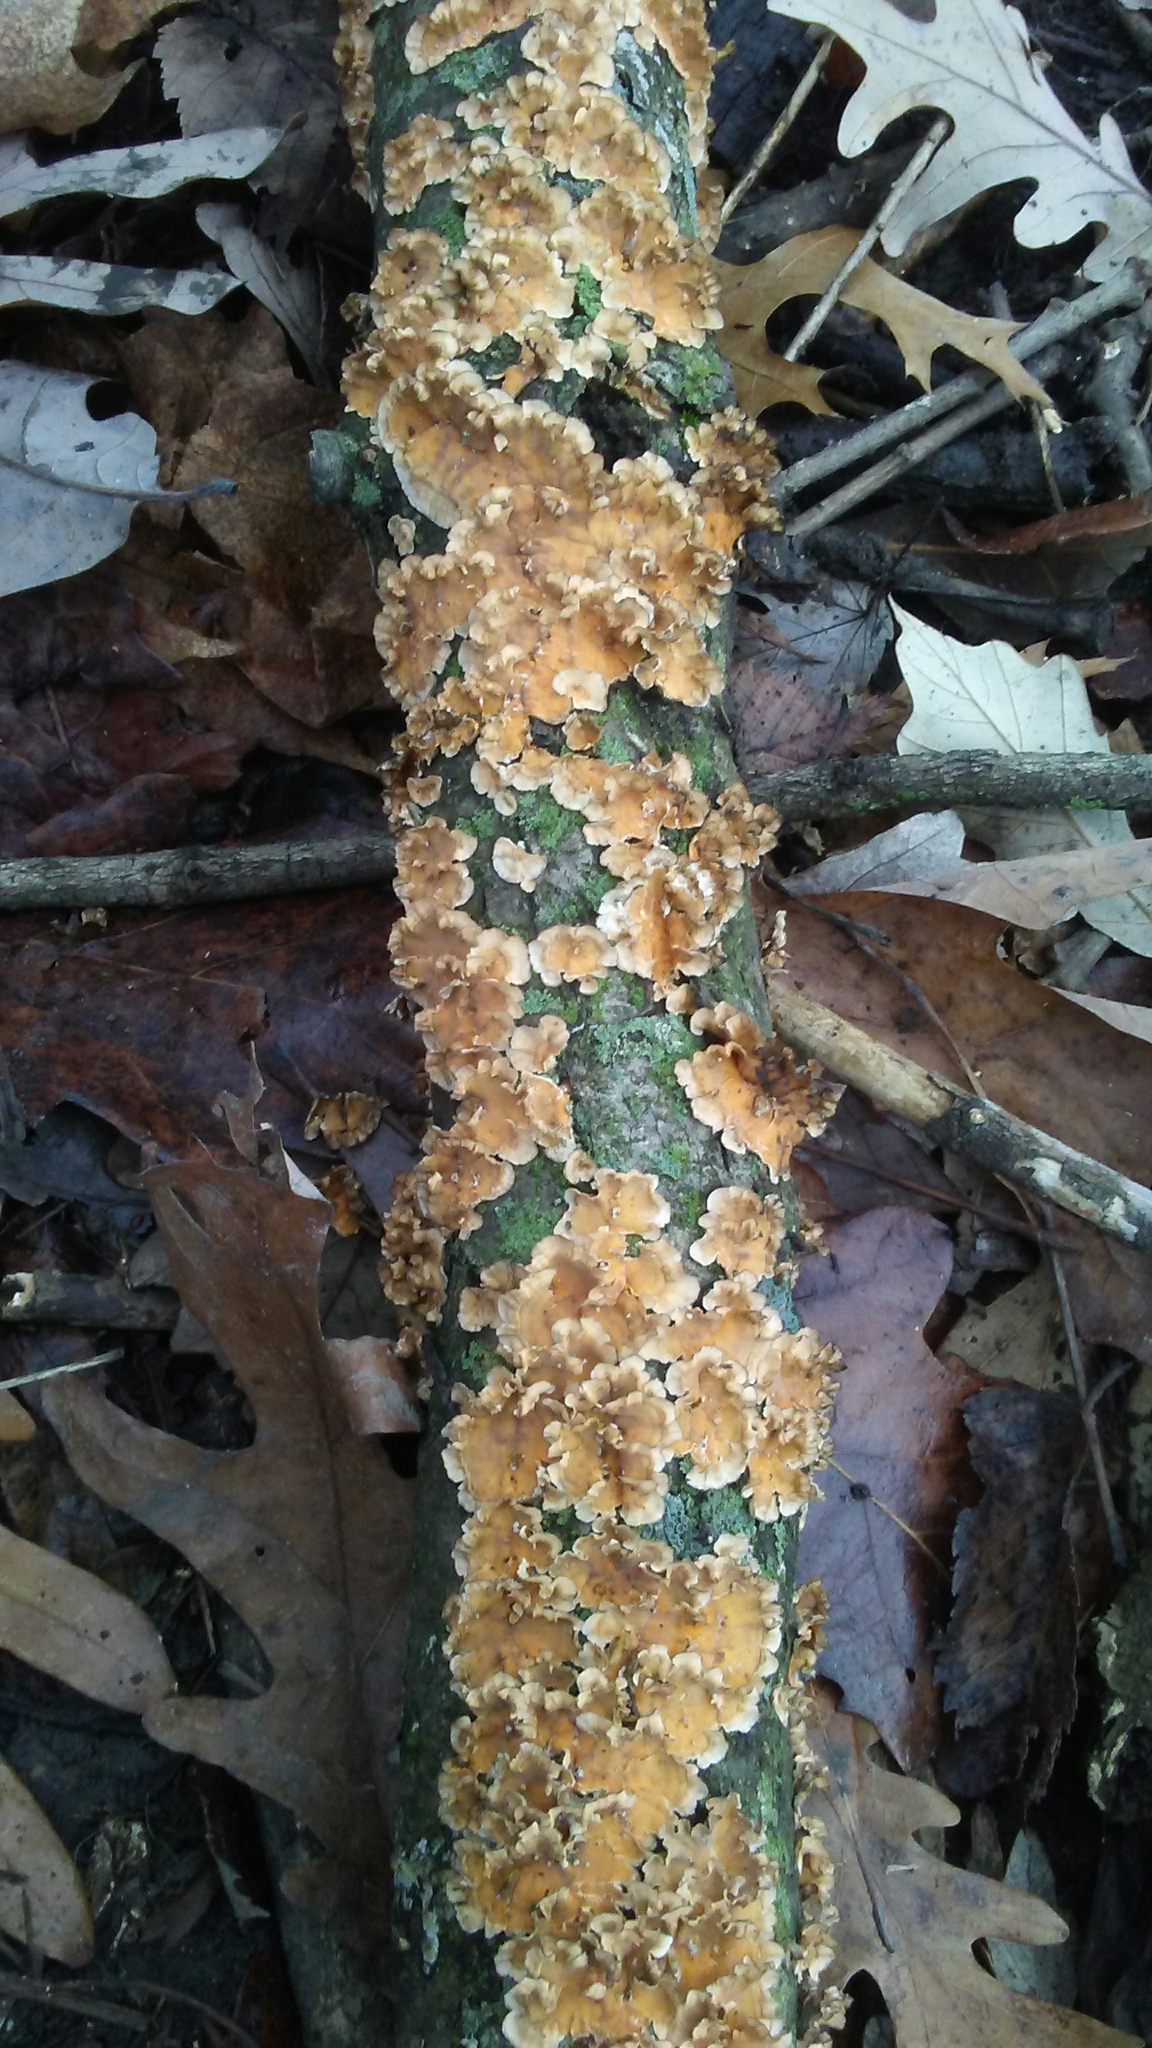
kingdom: Fungi
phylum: Basidiomycota
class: Agaricomycetes
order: Russulales
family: Stereaceae
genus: Stereum
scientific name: Stereum complicatum
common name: Crowded parchment
